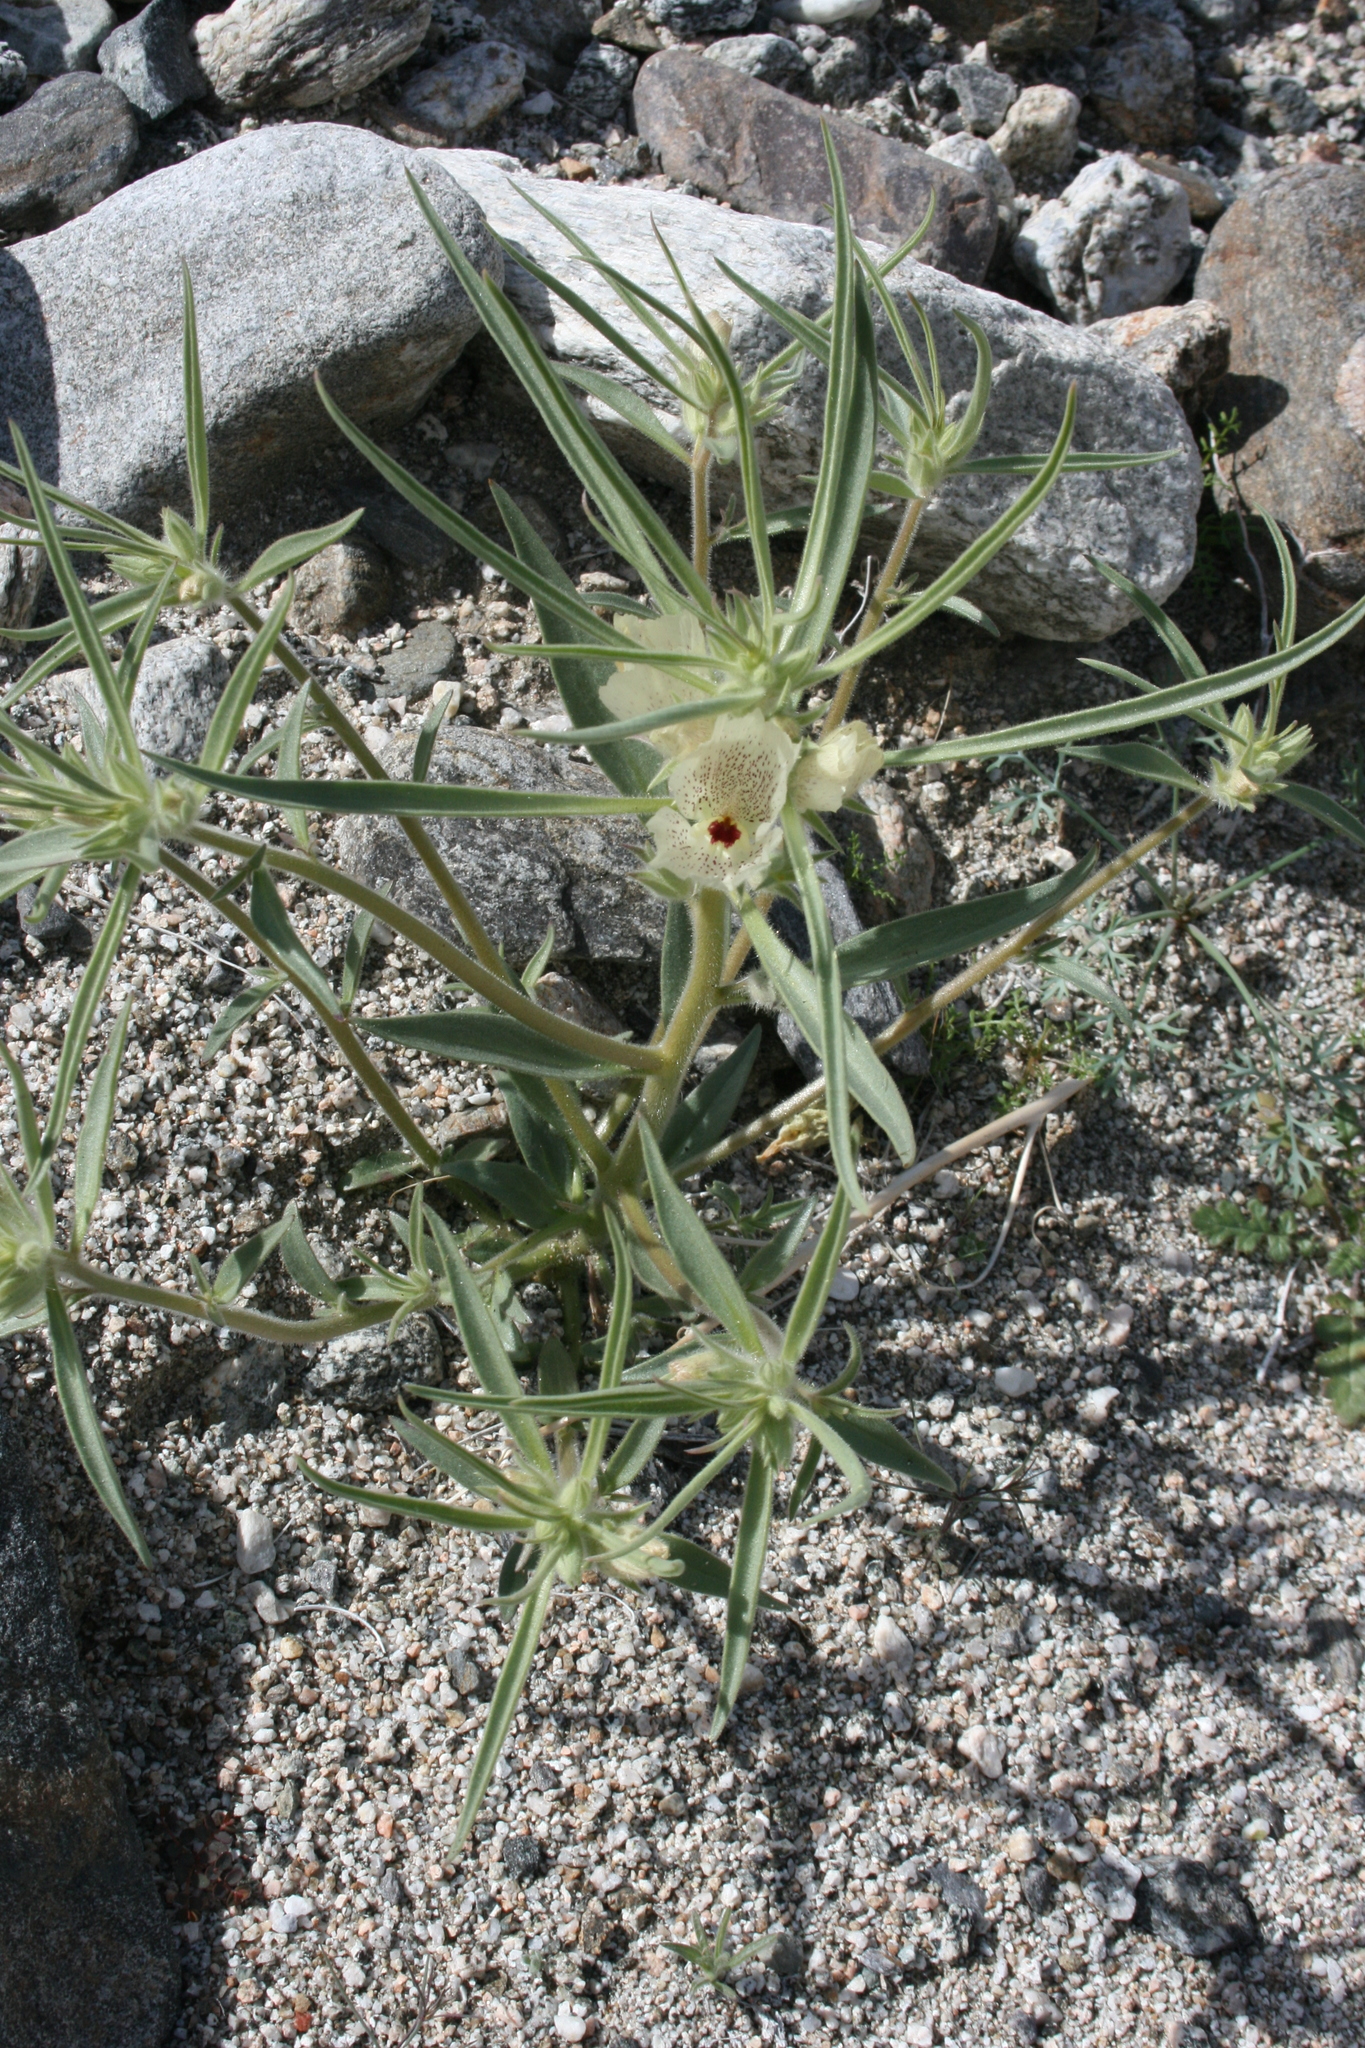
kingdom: Plantae
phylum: Tracheophyta
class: Magnoliopsida
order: Lamiales
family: Plantaginaceae
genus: Mohavea
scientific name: Mohavea confertiflora
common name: Ghost flower
